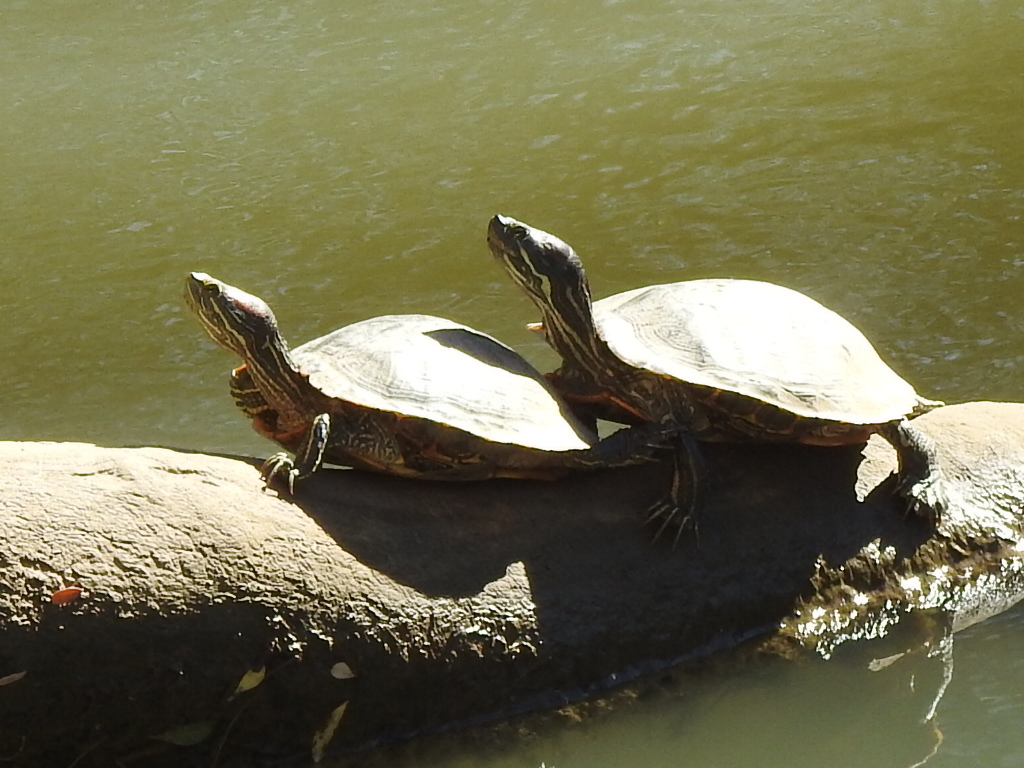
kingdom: Animalia
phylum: Chordata
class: Testudines
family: Emydidae
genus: Trachemys
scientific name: Trachemys scripta
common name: Slider
